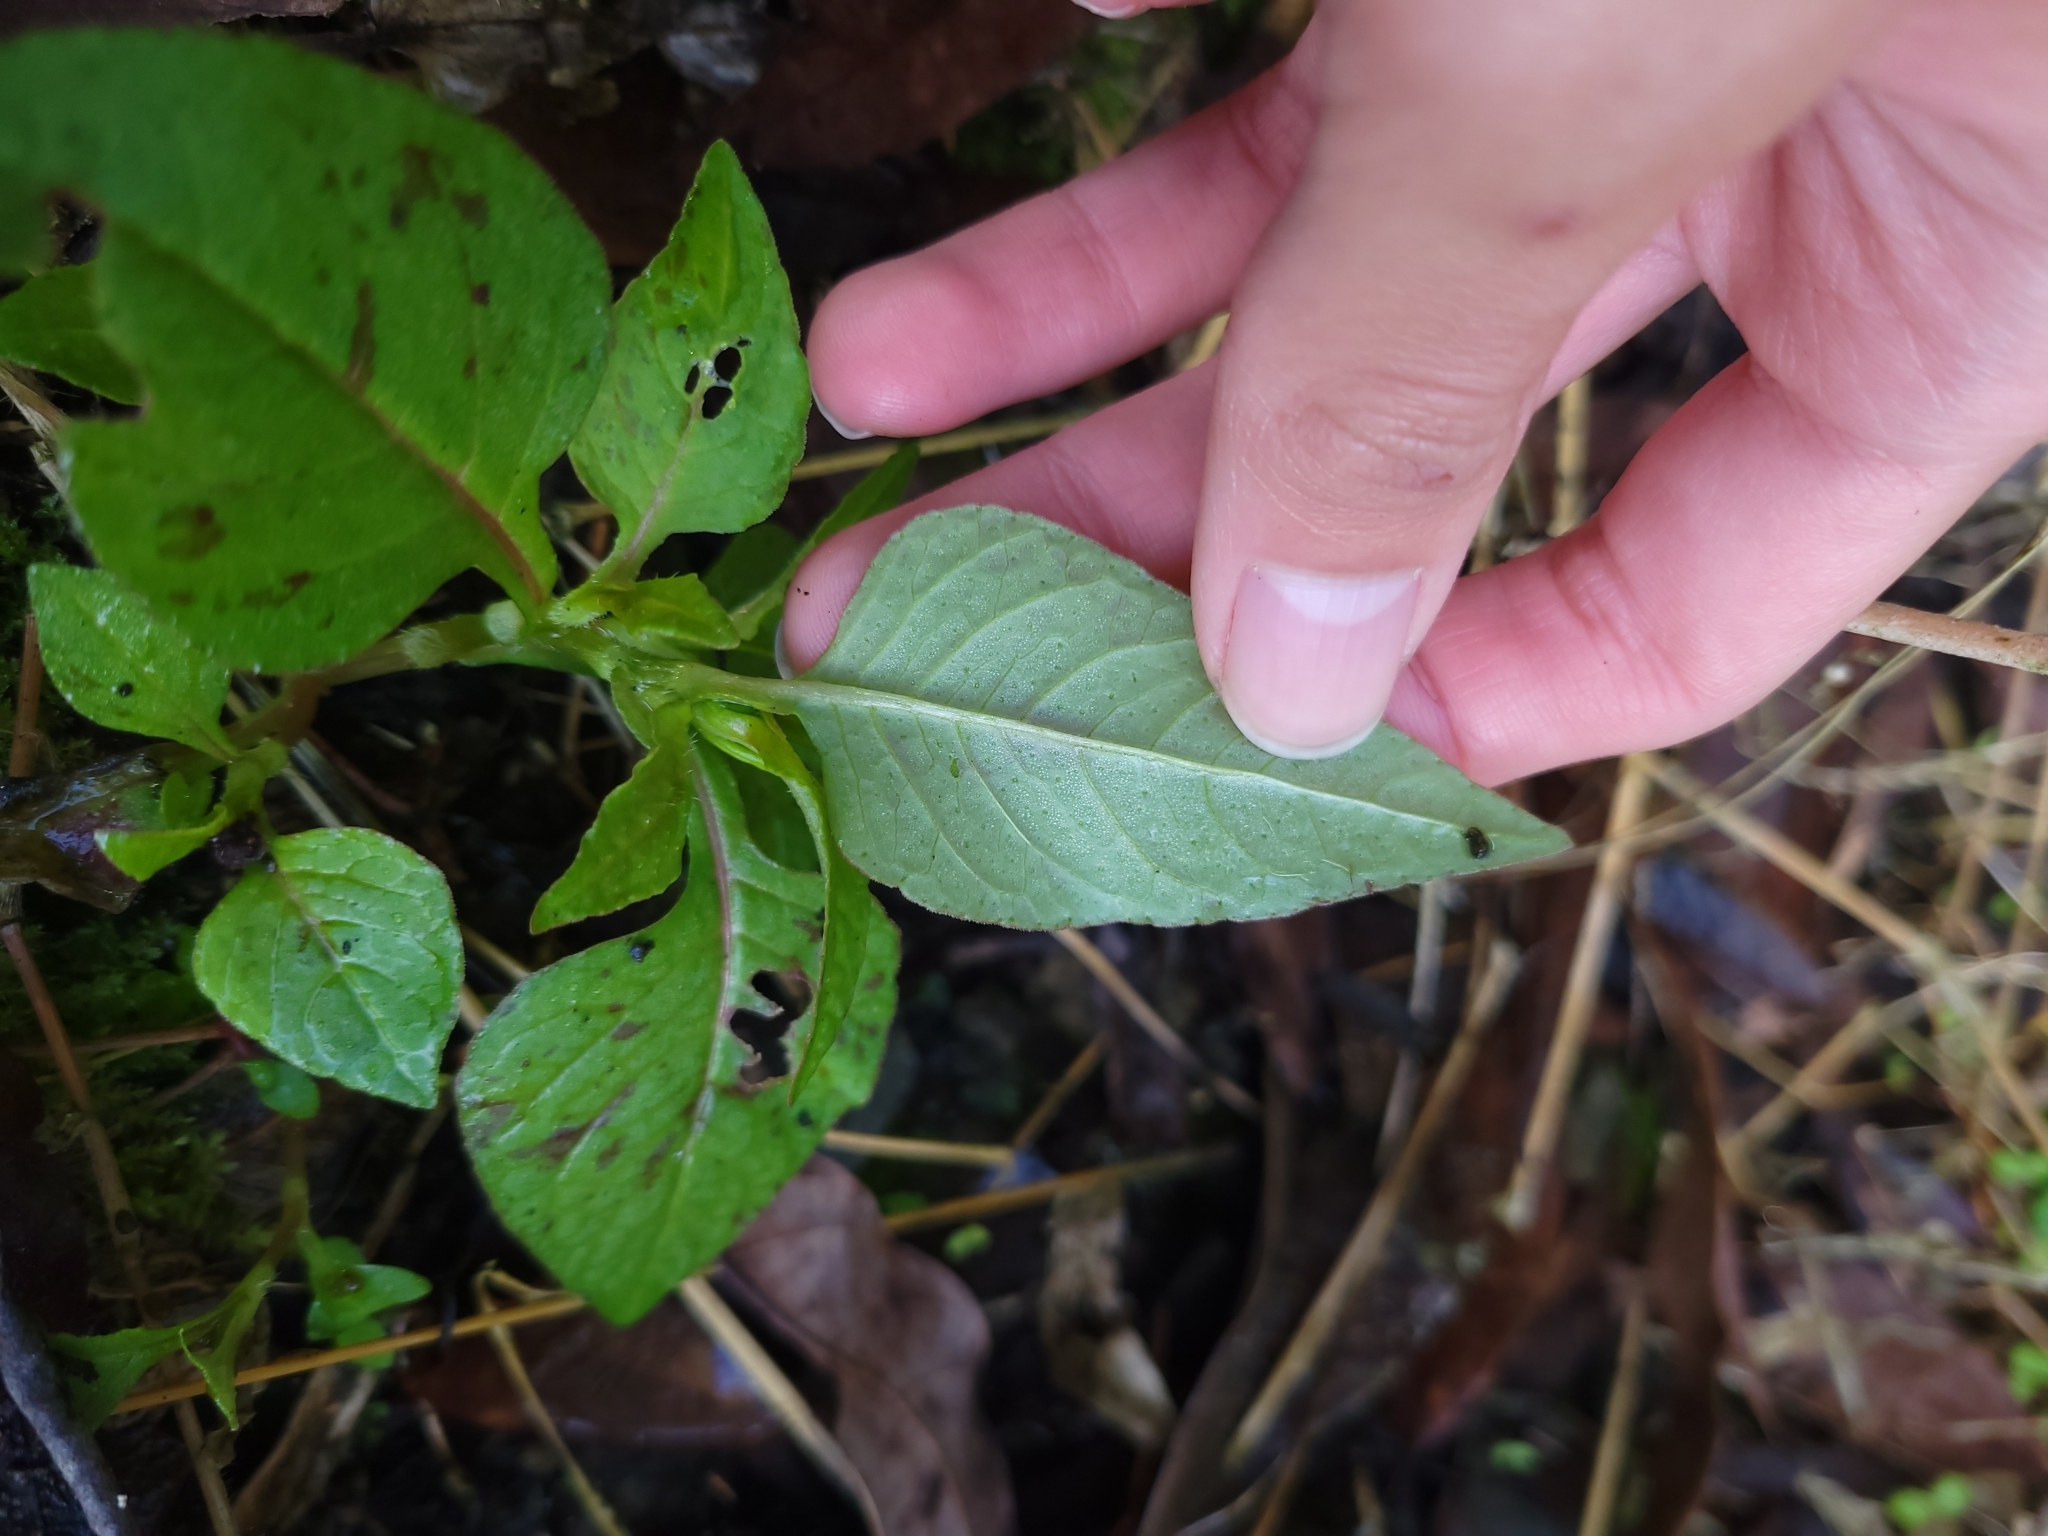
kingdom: Plantae
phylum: Tracheophyta
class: Magnoliopsida
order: Caryophyllales
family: Polygonaceae
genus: Persicaria
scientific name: Persicaria nepalensis
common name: Nepal persicaria
